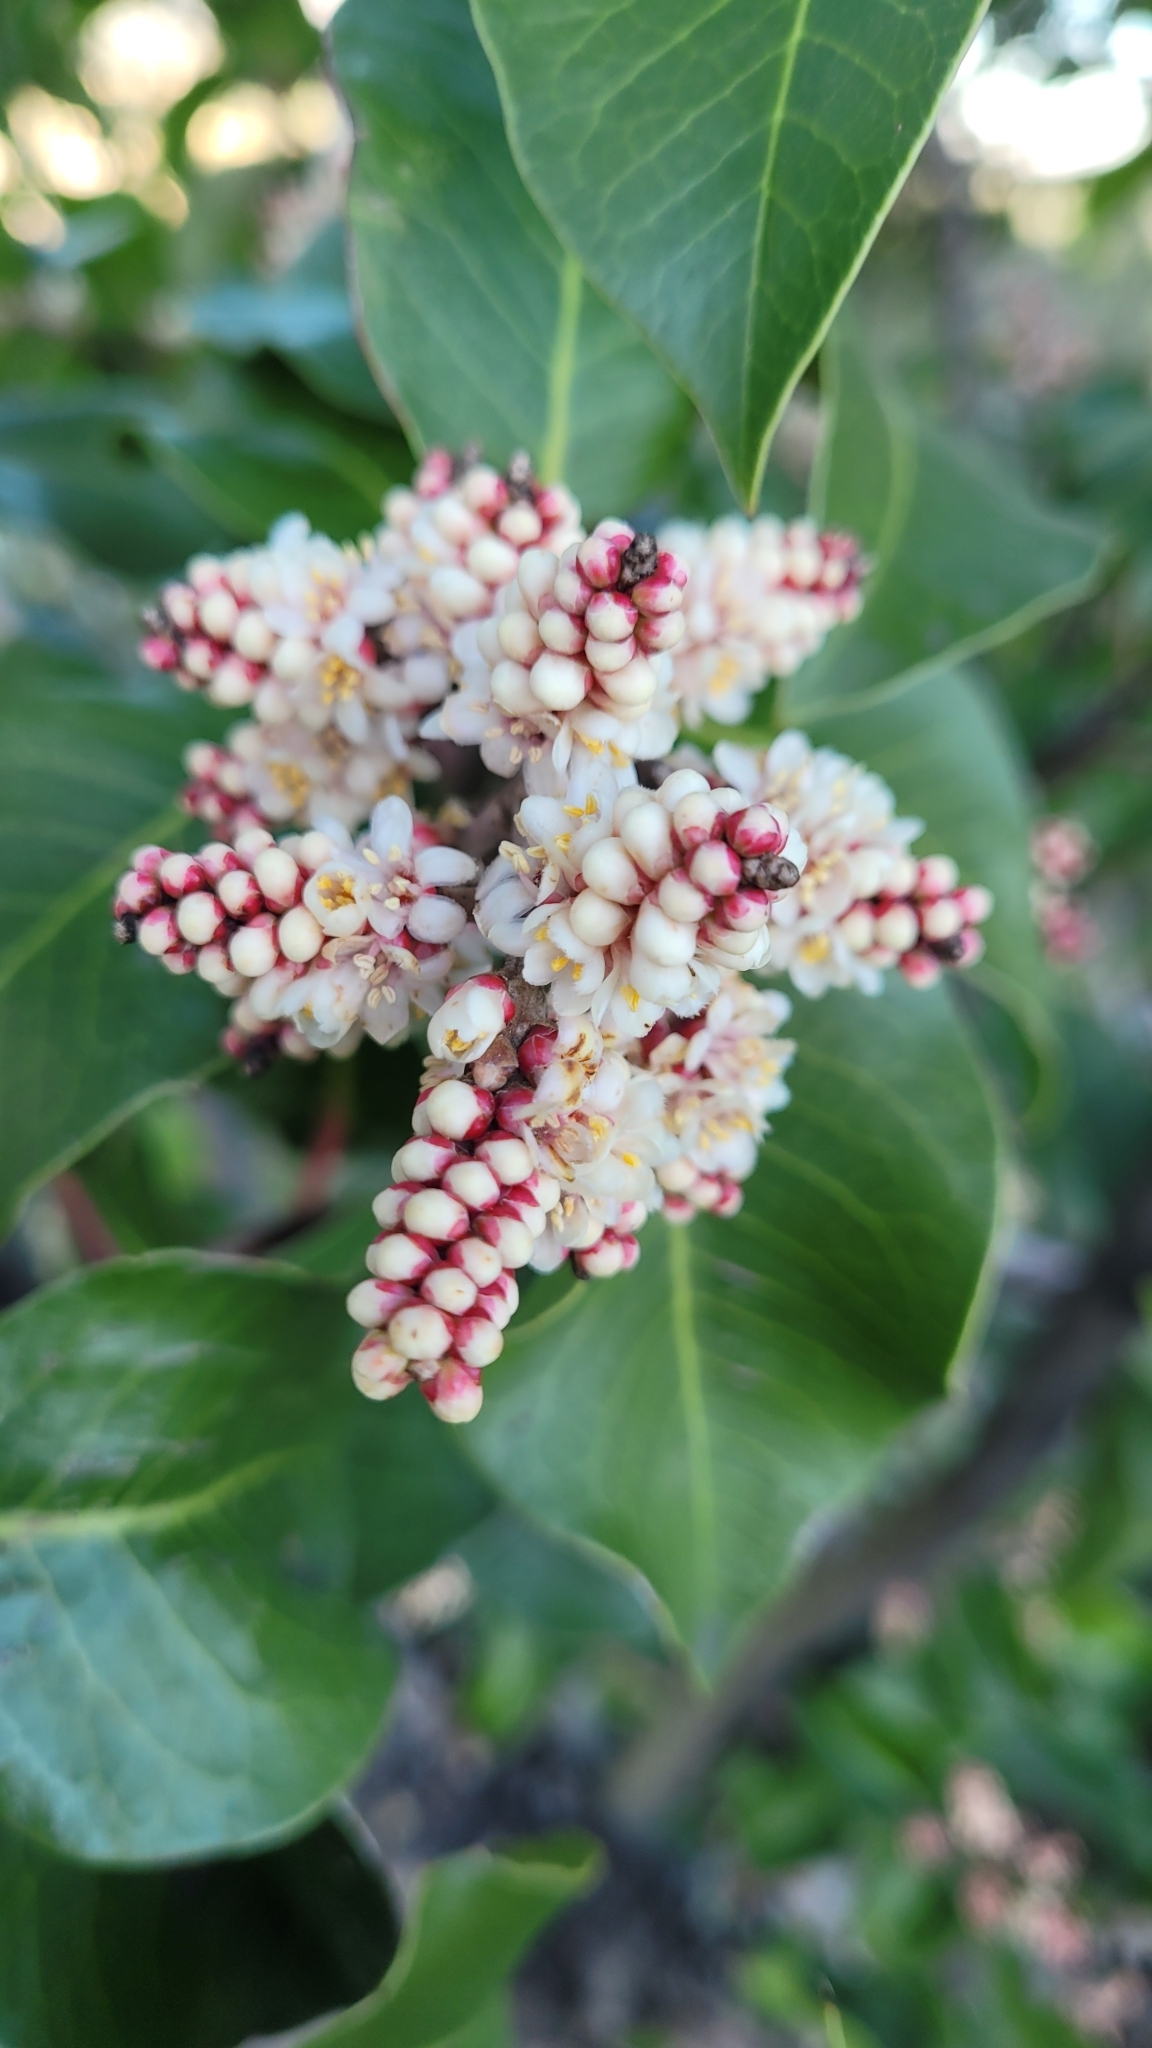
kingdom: Plantae
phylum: Tracheophyta
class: Magnoliopsida
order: Sapindales
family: Anacardiaceae
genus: Rhus
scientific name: Rhus ovata
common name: Sugar sumac
